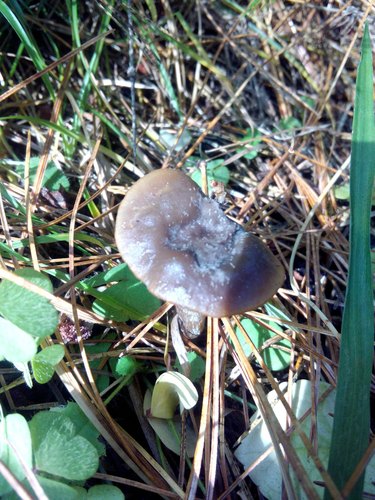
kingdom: Fungi
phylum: Basidiomycota
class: Agaricomycetes
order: Agaricales
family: Amanitaceae
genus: Amanita
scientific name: Amanita
